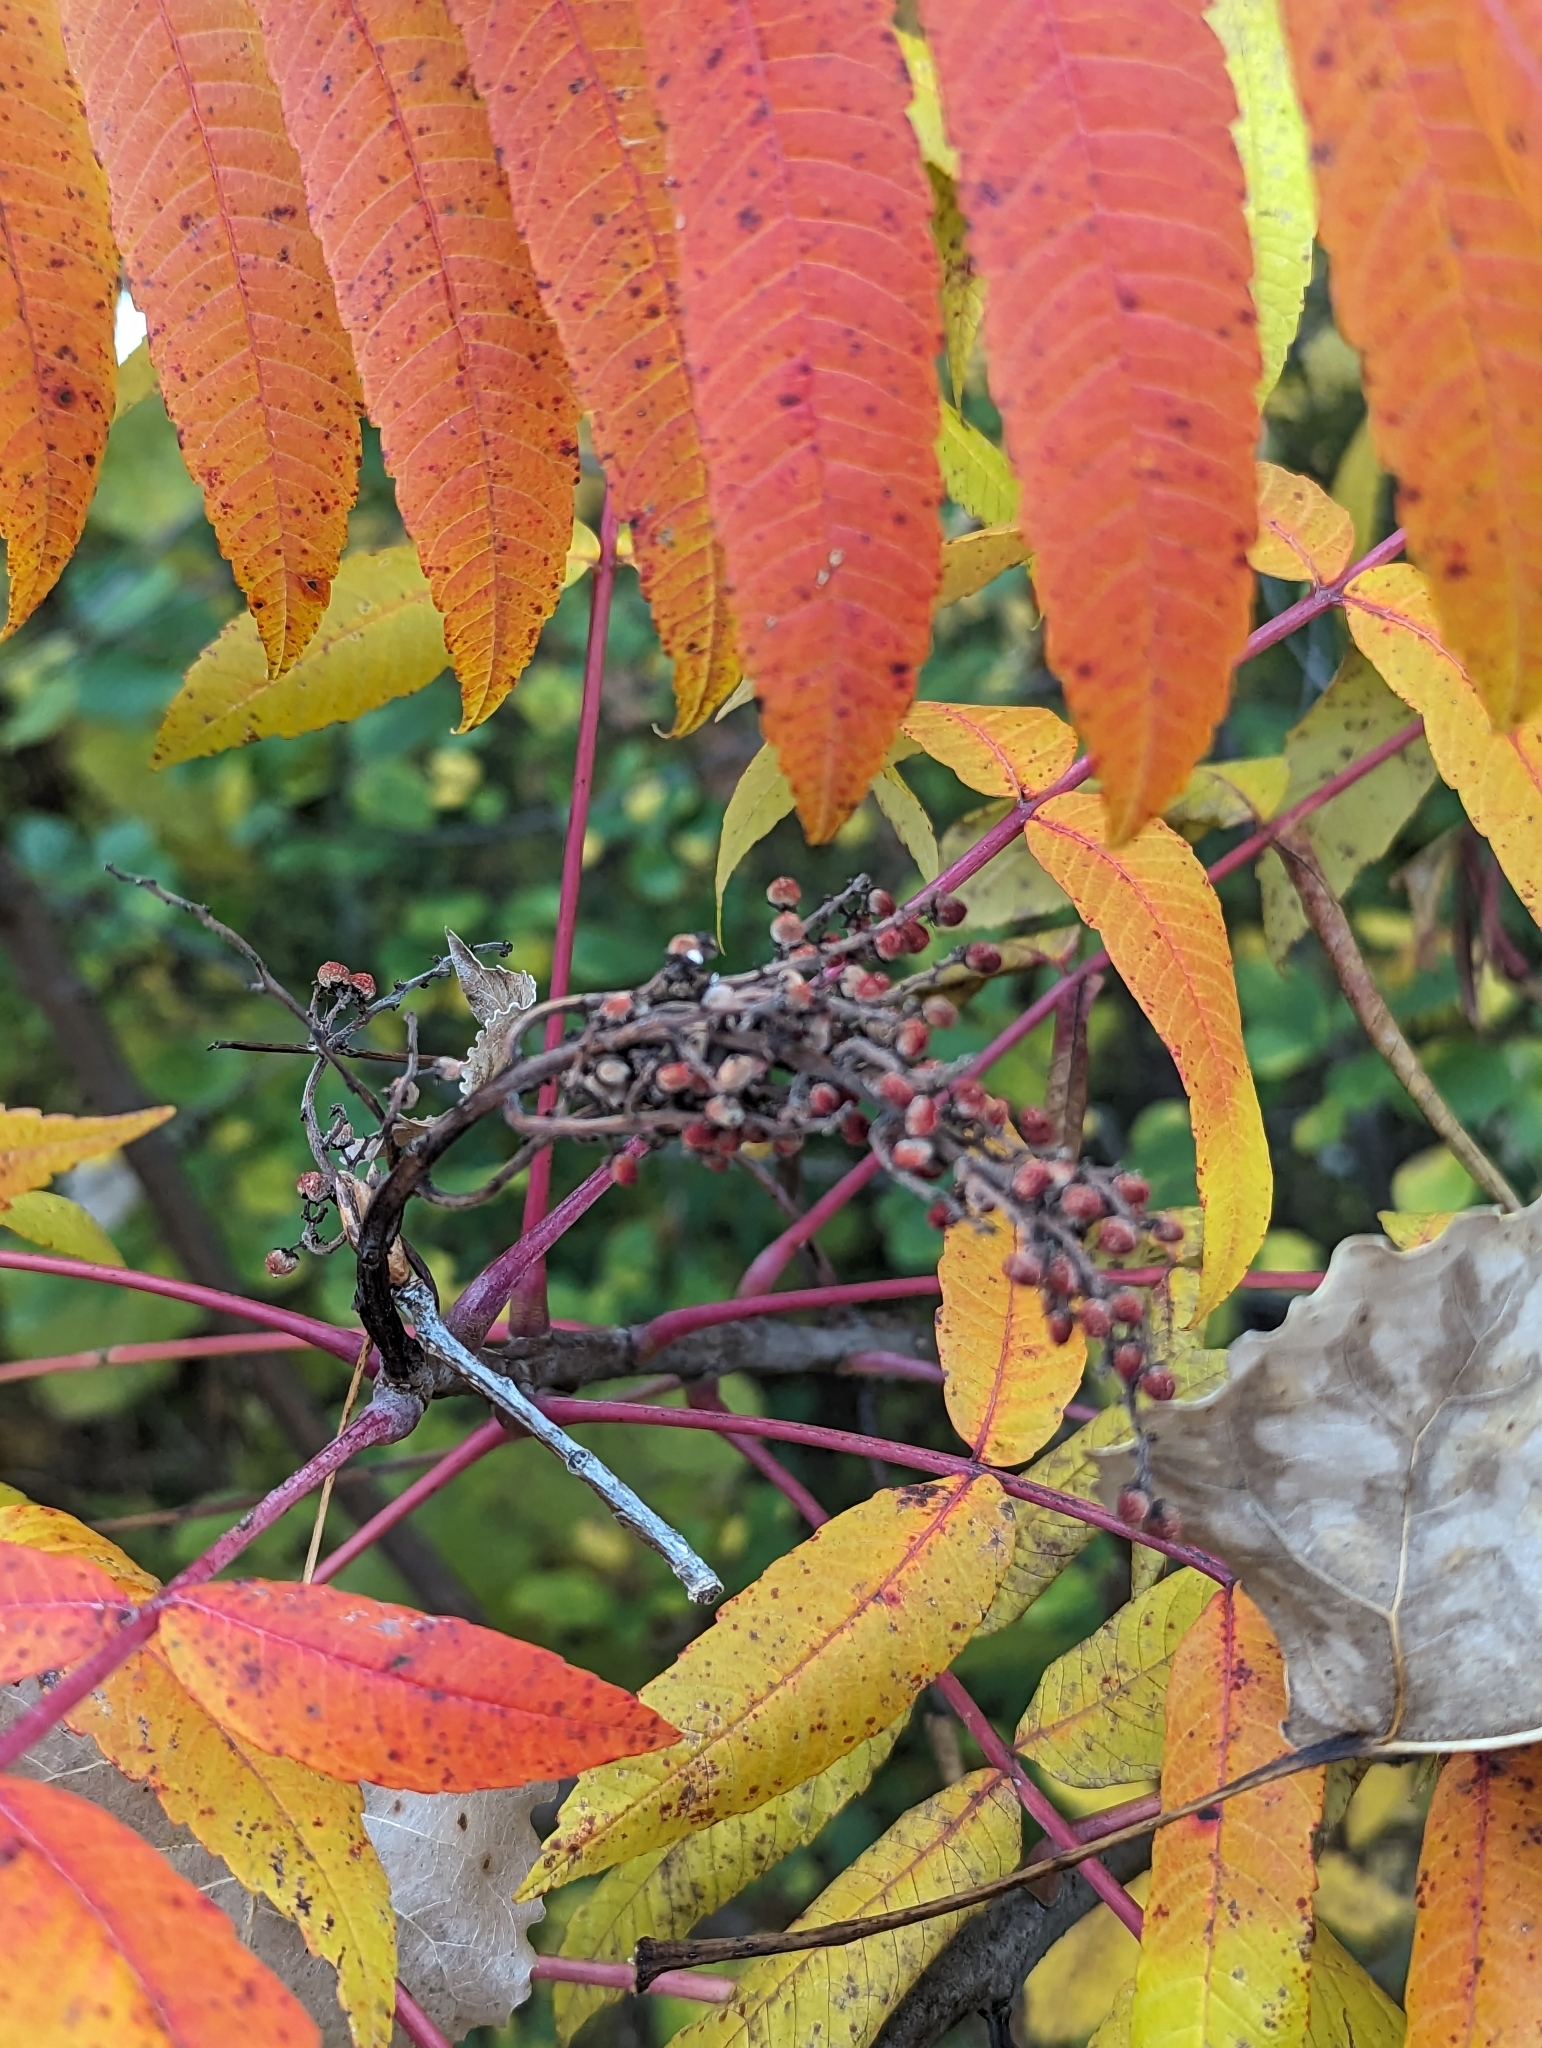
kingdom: Plantae
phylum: Tracheophyta
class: Magnoliopsida
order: Sapindales
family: Anacardiaceae
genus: Rhus
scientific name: Rhus glabra
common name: Scarlet sumac
